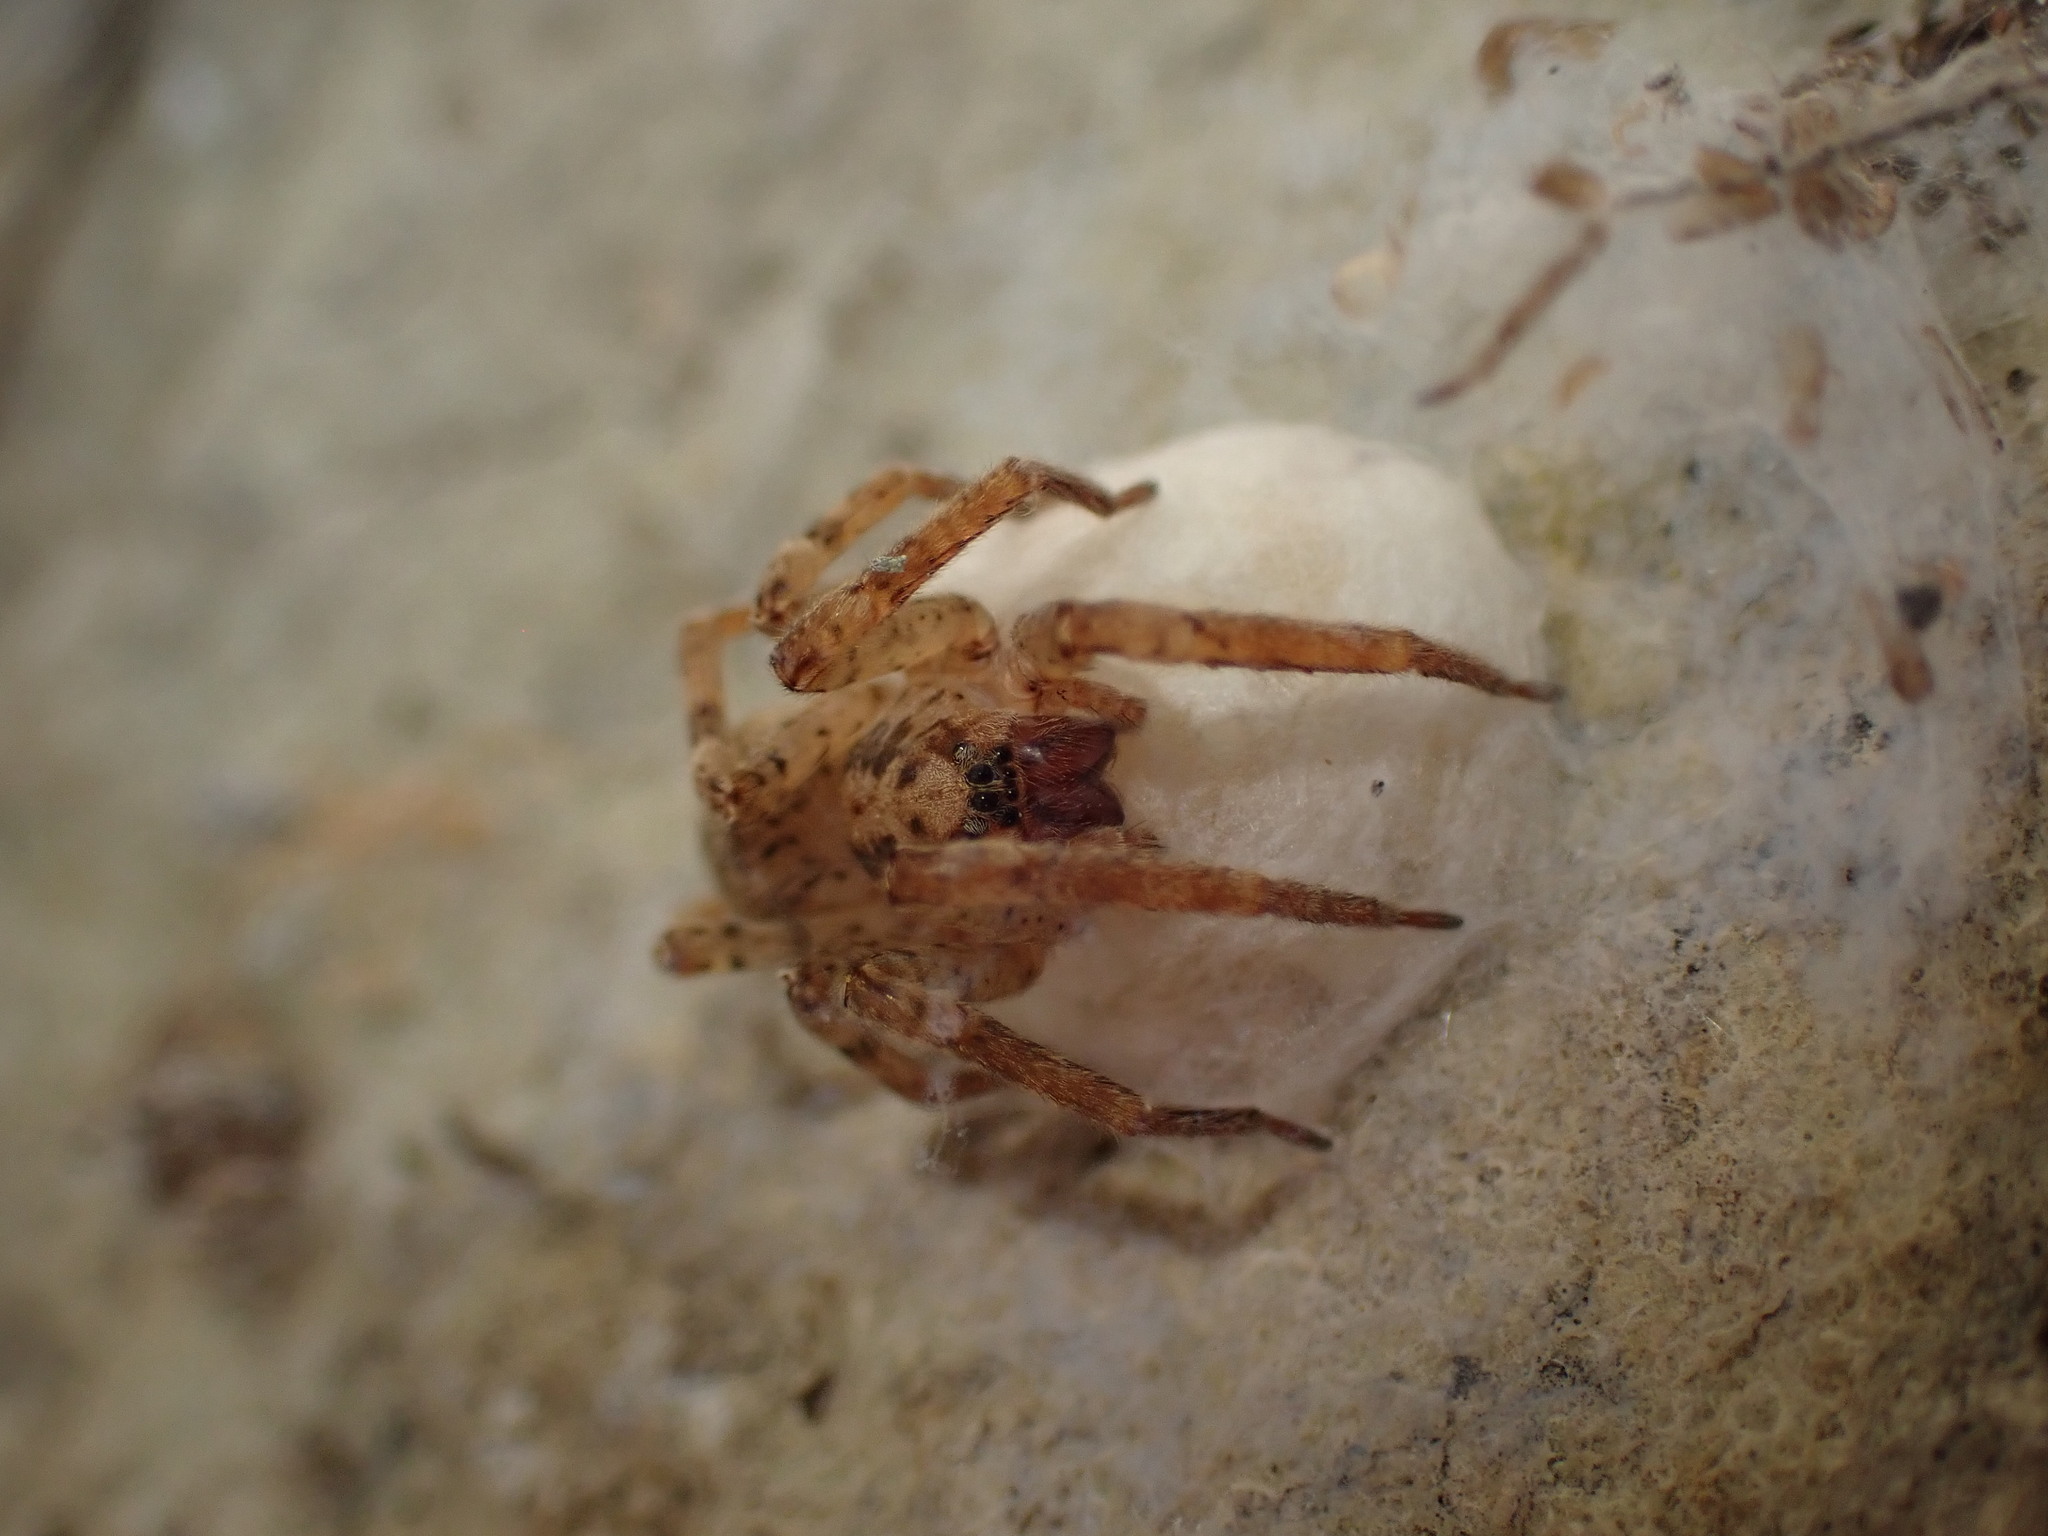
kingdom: Animalia
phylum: Arthropoda
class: Arachnida
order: Araneae
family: Zoropsidae
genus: Zoropsis
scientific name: Zoropsis media
